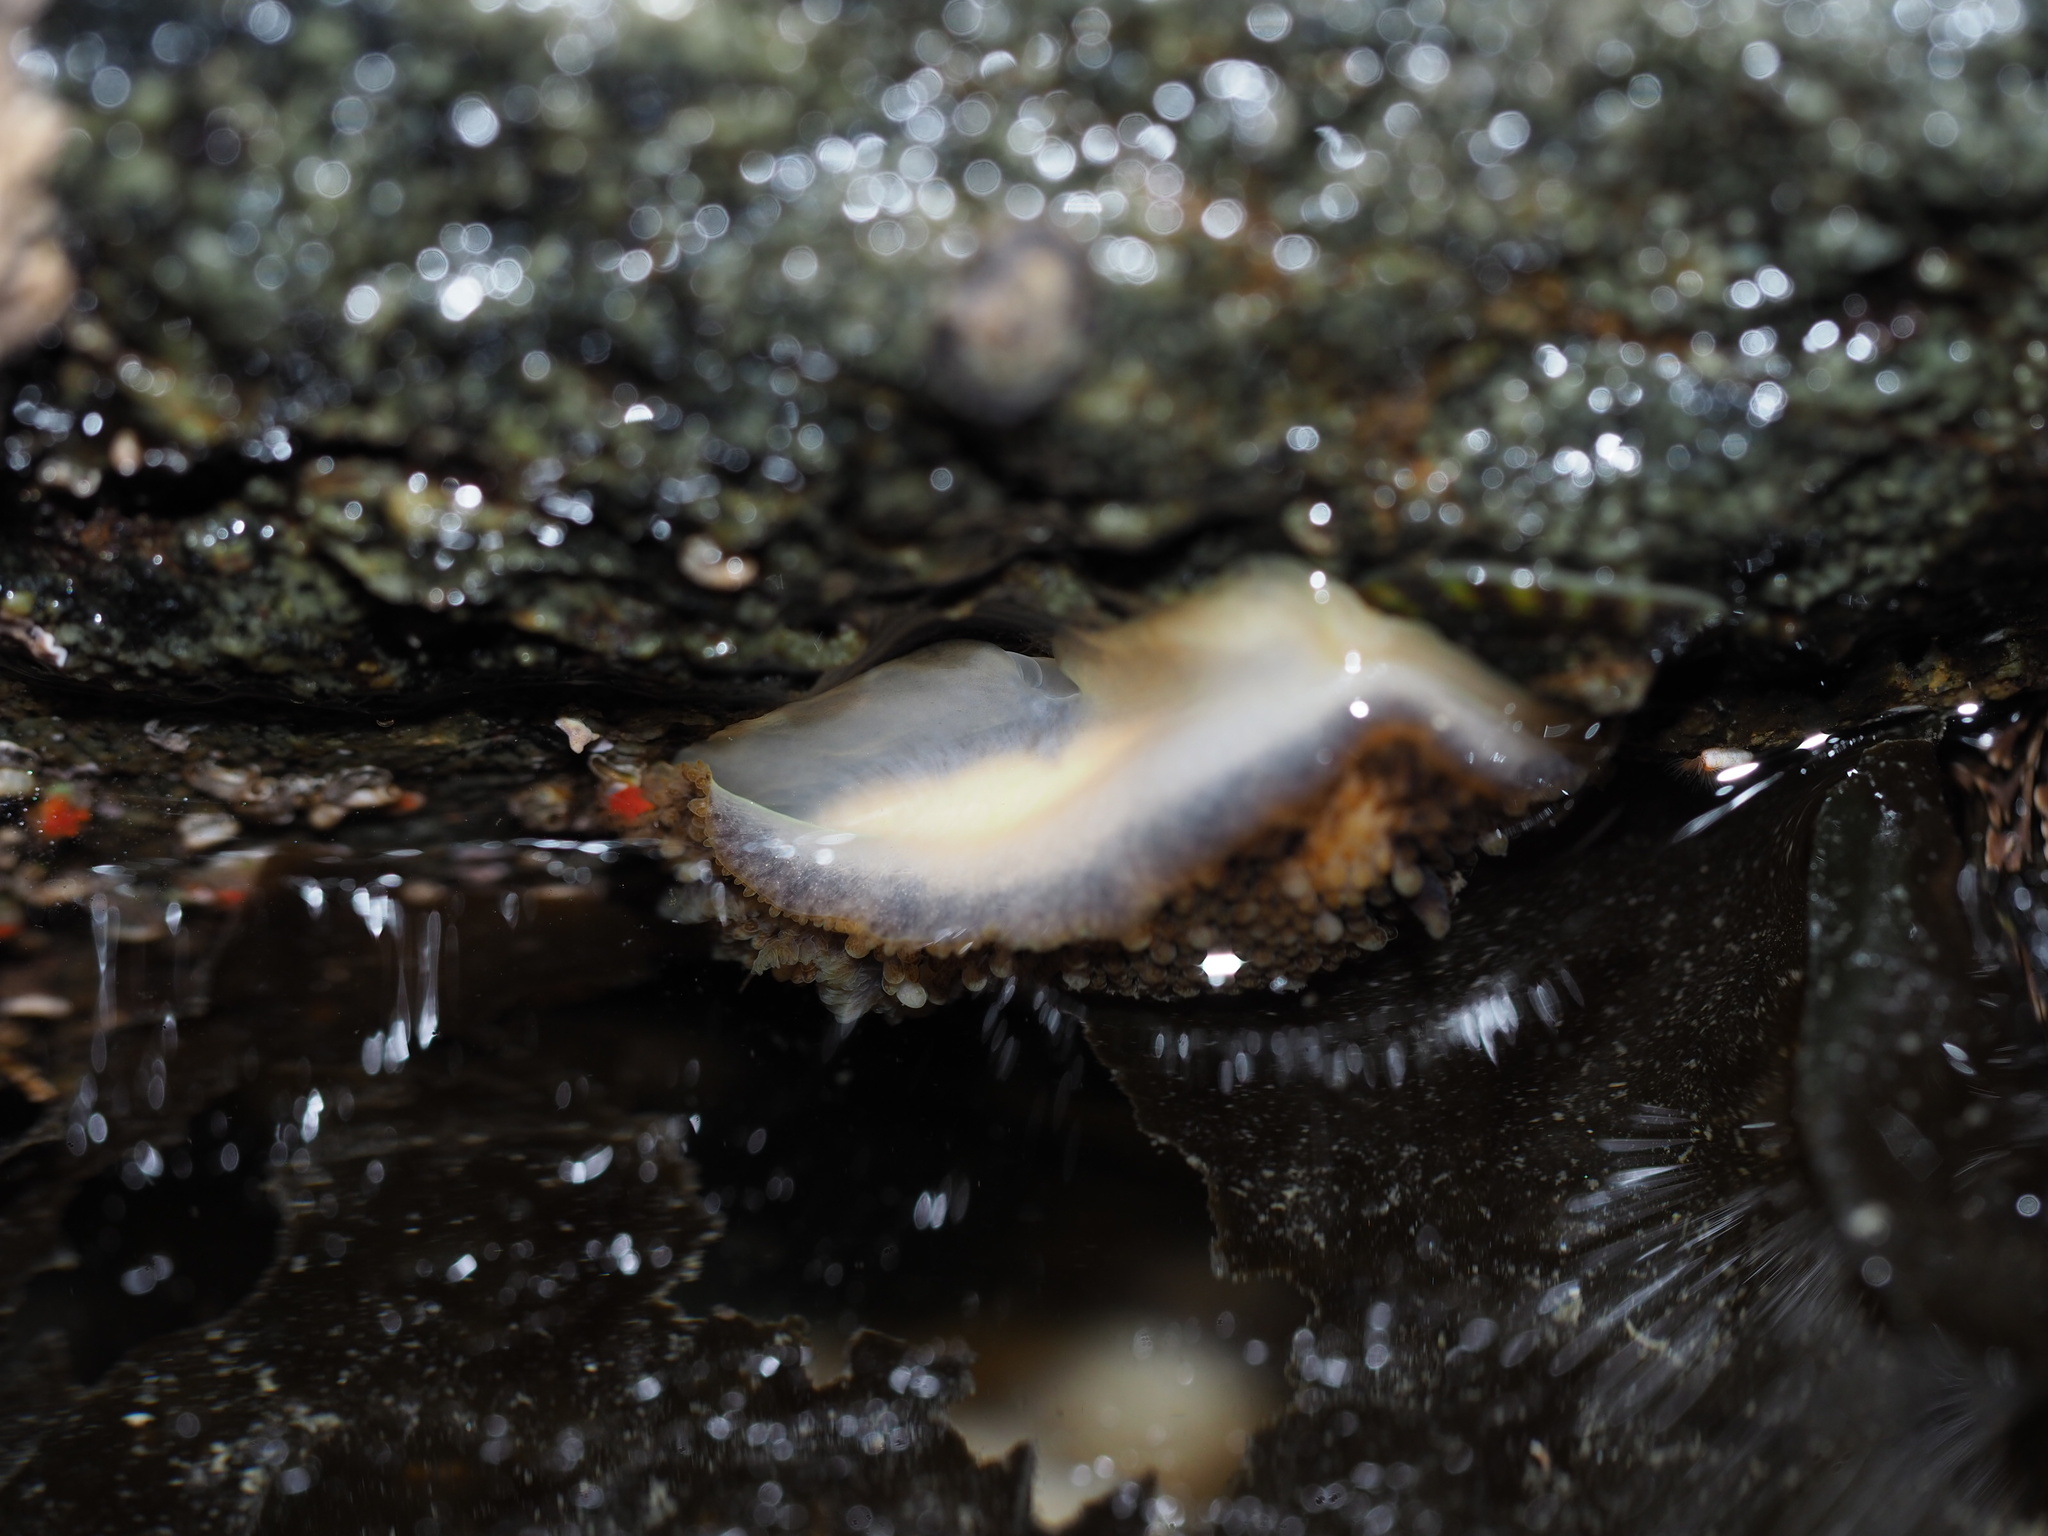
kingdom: Animalia
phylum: Mollusca
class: Gastropoda
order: Nudibranchia
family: Onchidorididae
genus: Onchidoris
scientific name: Onchidoris bilamellata
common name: Barnacle-eating onchidoris
